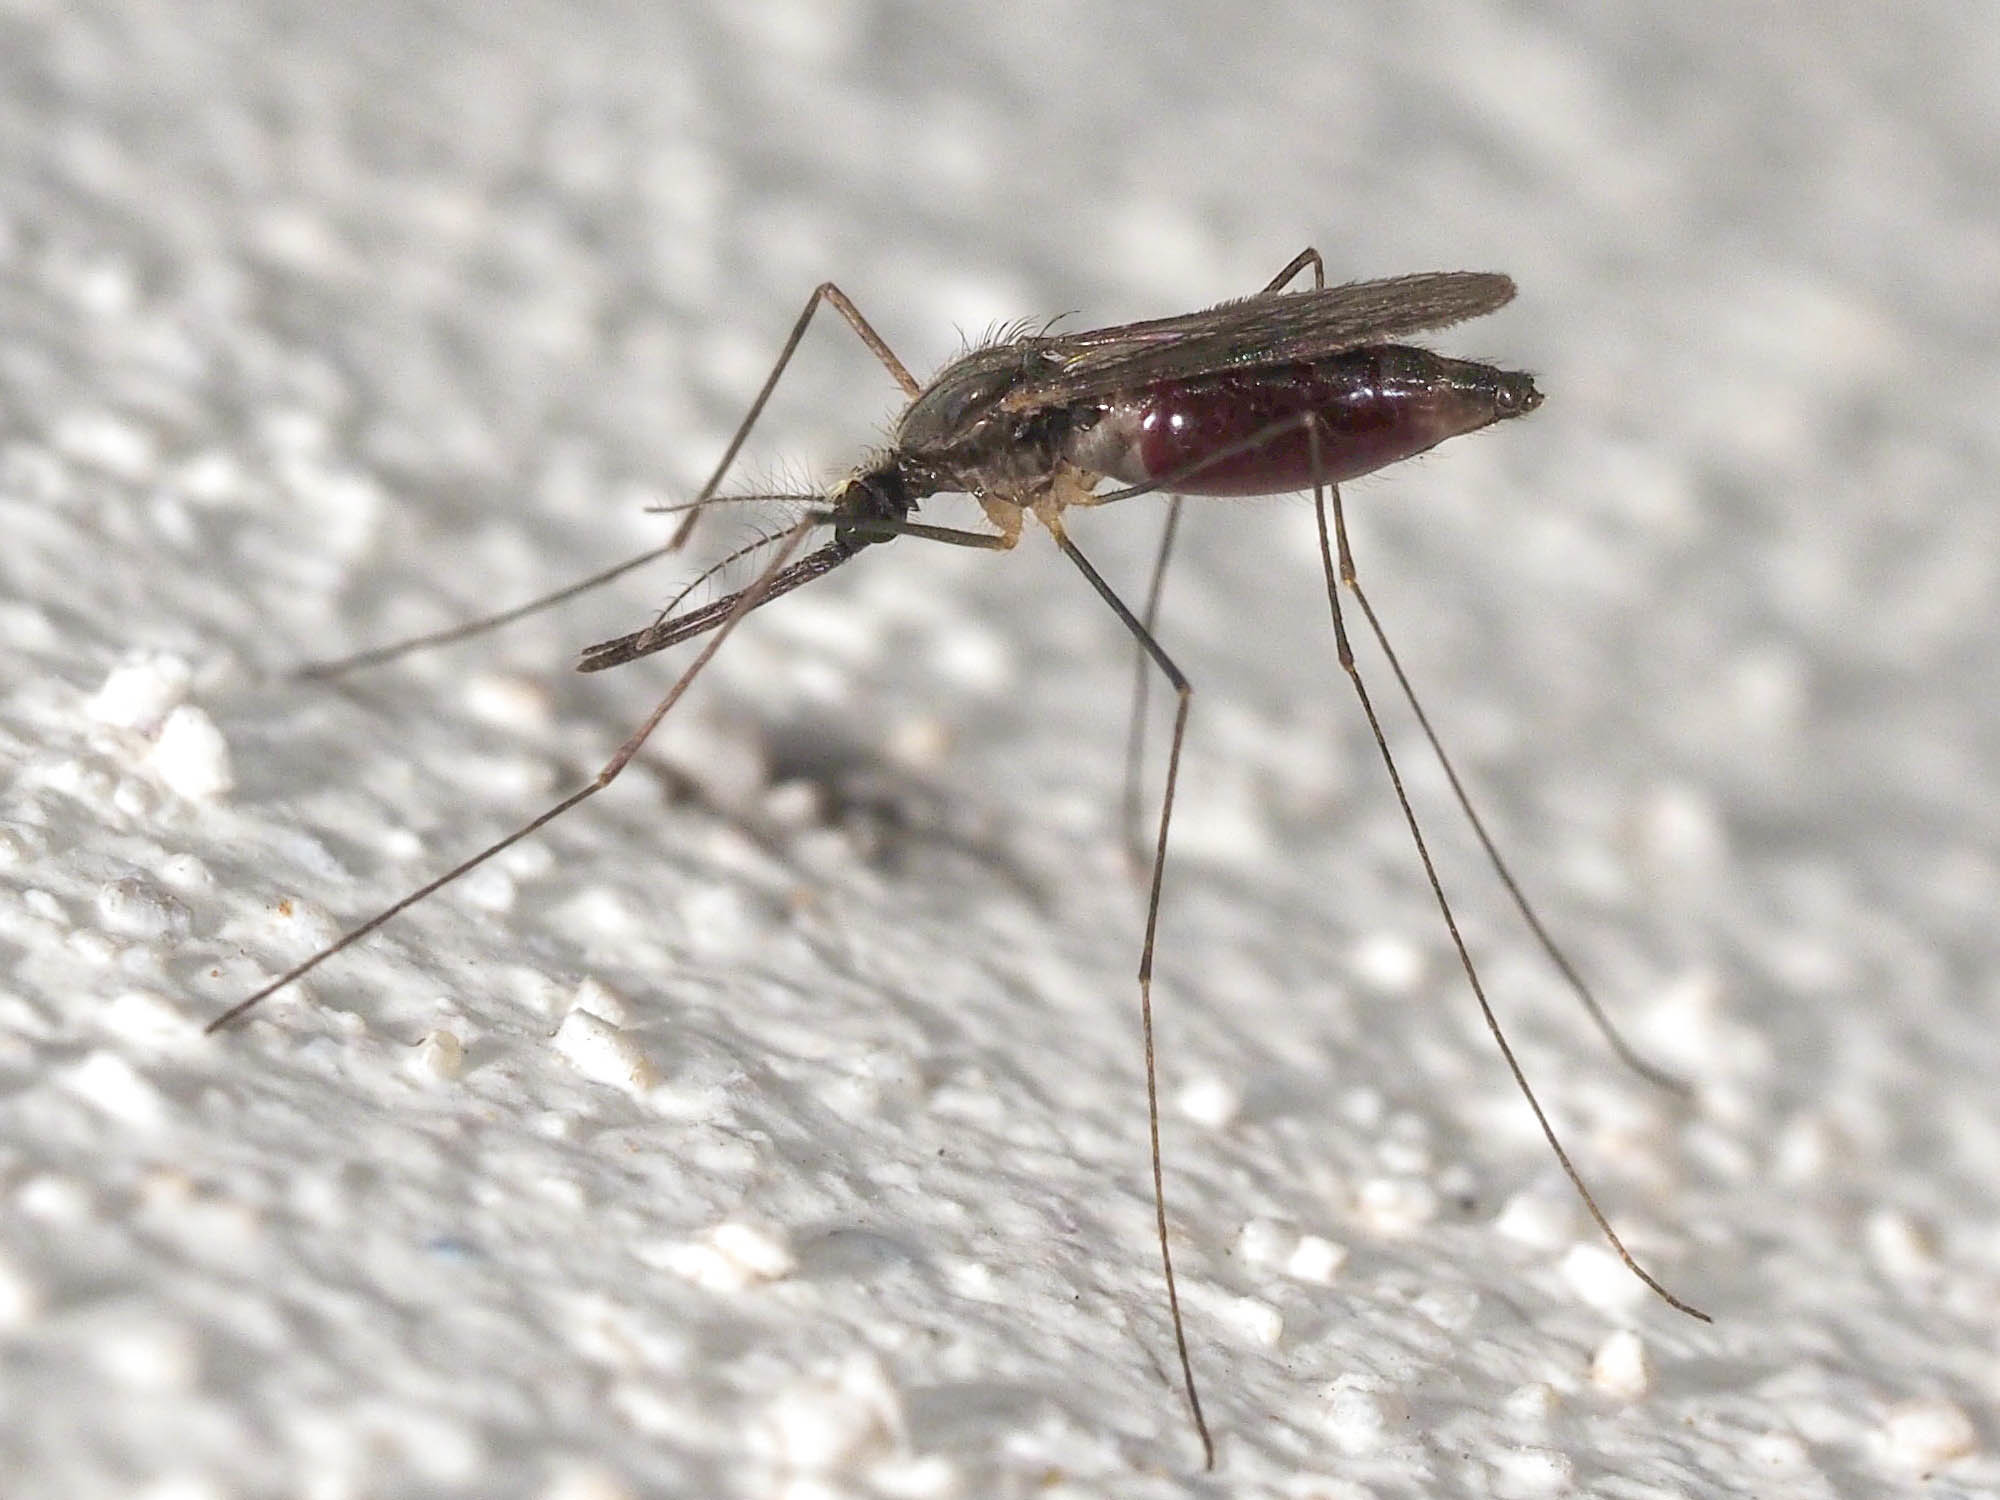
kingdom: Animalia
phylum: Arthropoda
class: Insecta
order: Diptera
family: Culicidae
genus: Anopheles
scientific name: Anopheles plumbeus
